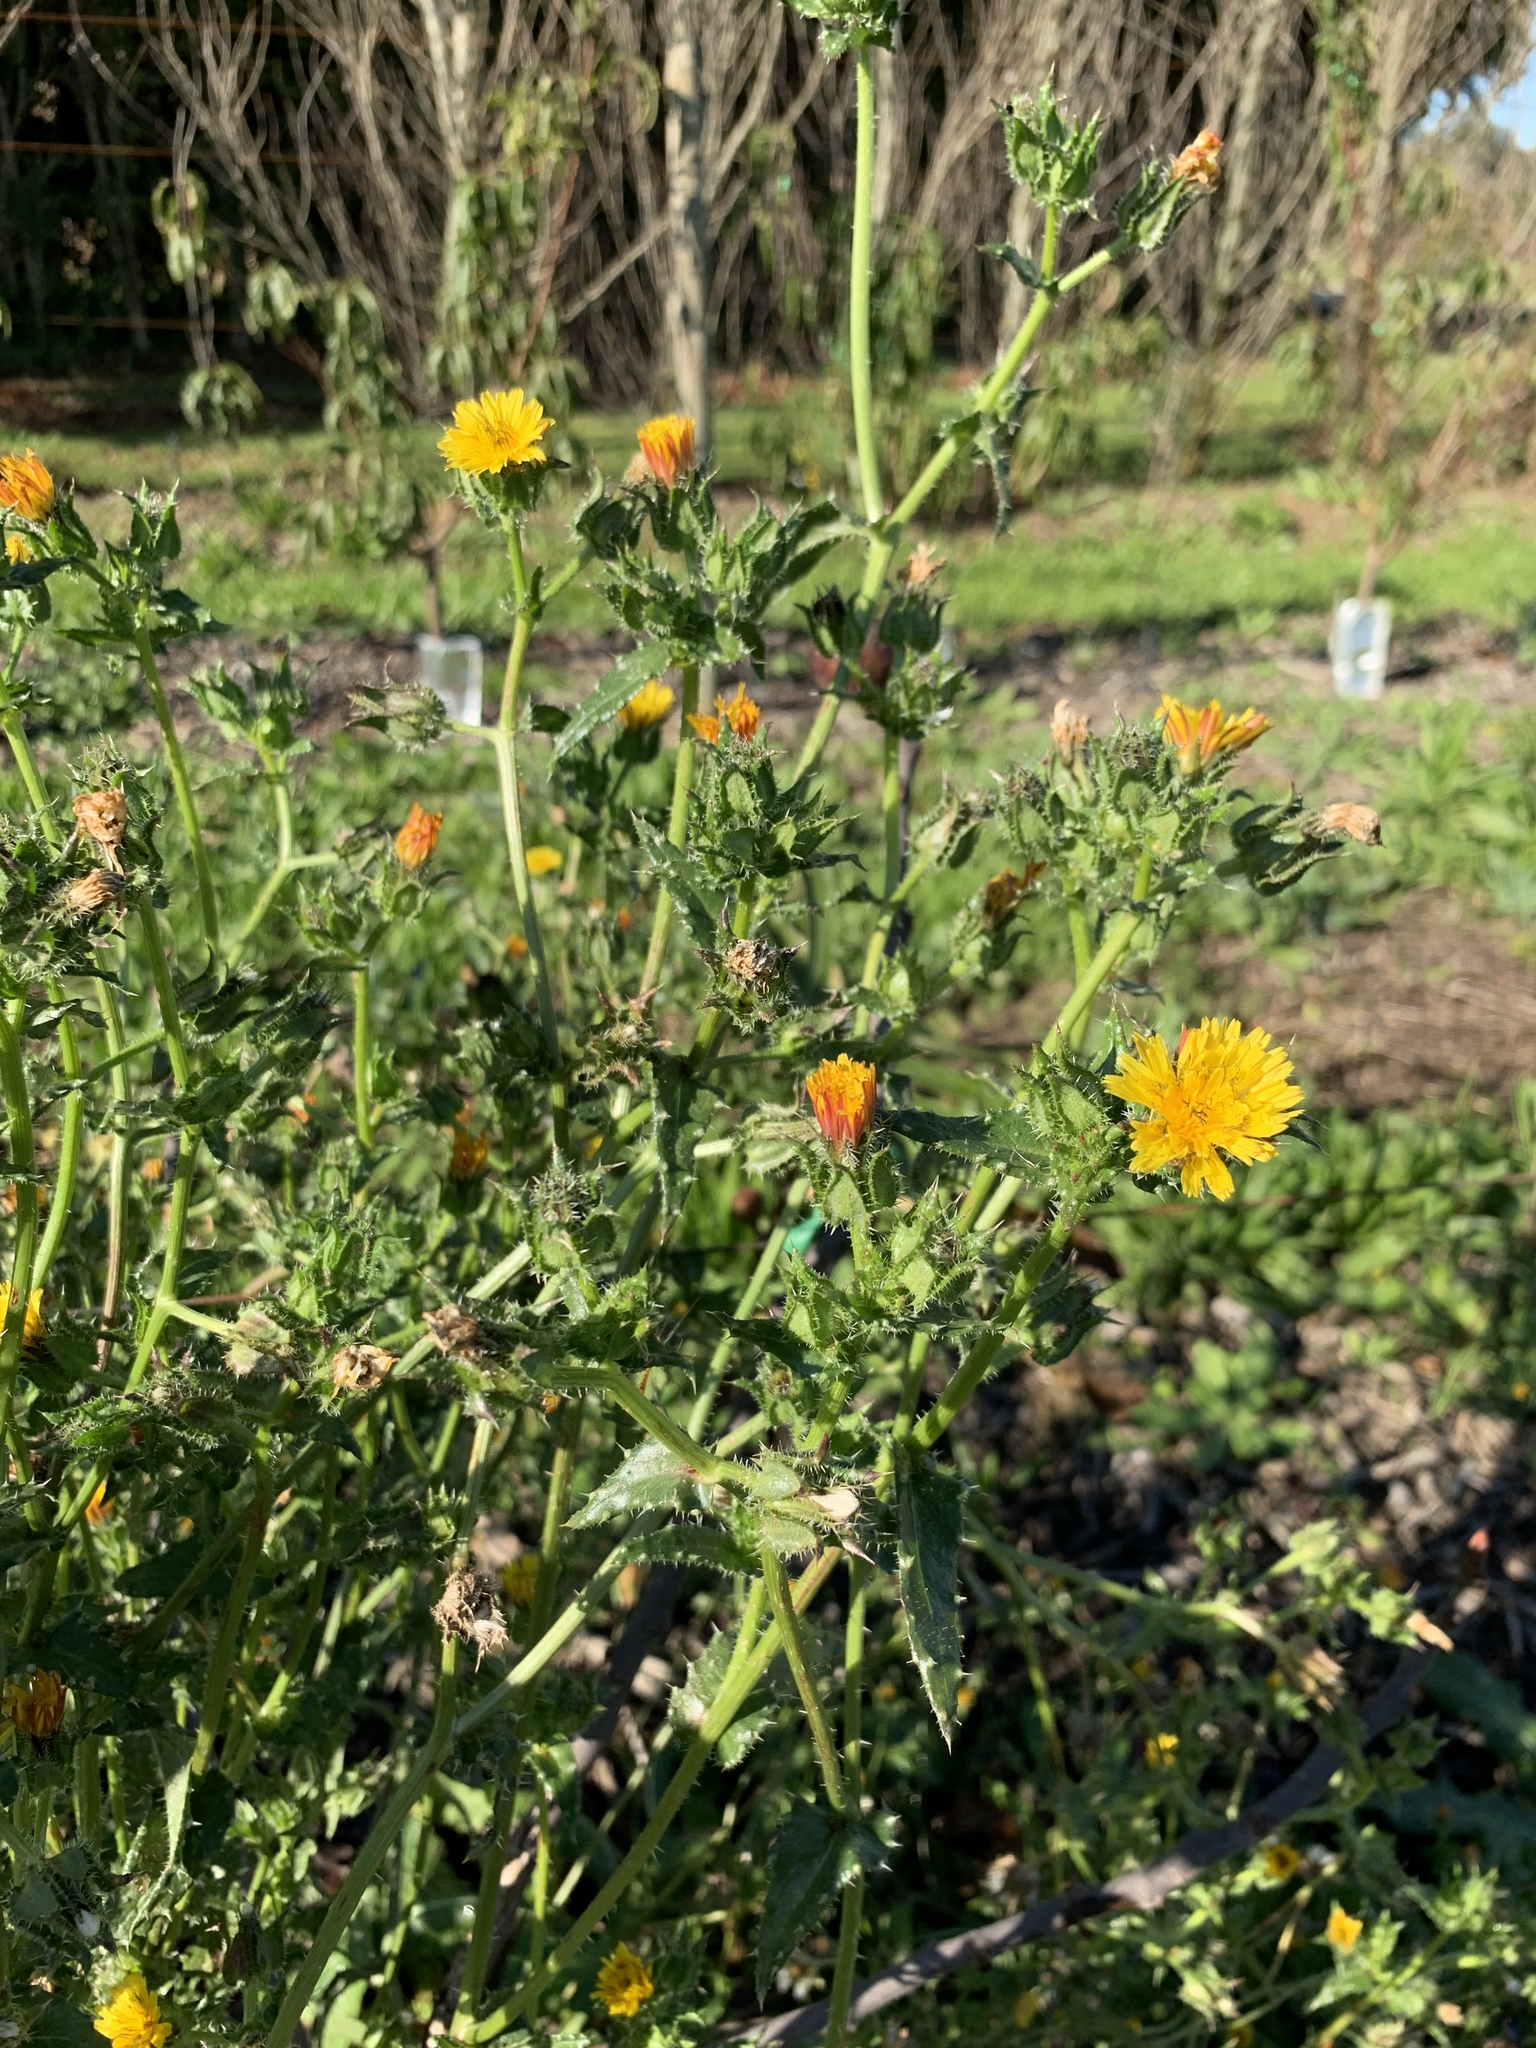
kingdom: Plantae
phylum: Tracheophyta
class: Magnoliopsida
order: Asterales
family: Asteraceae
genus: Helminthotheca
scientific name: Helminthotheca echioides
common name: Ox-tongue
